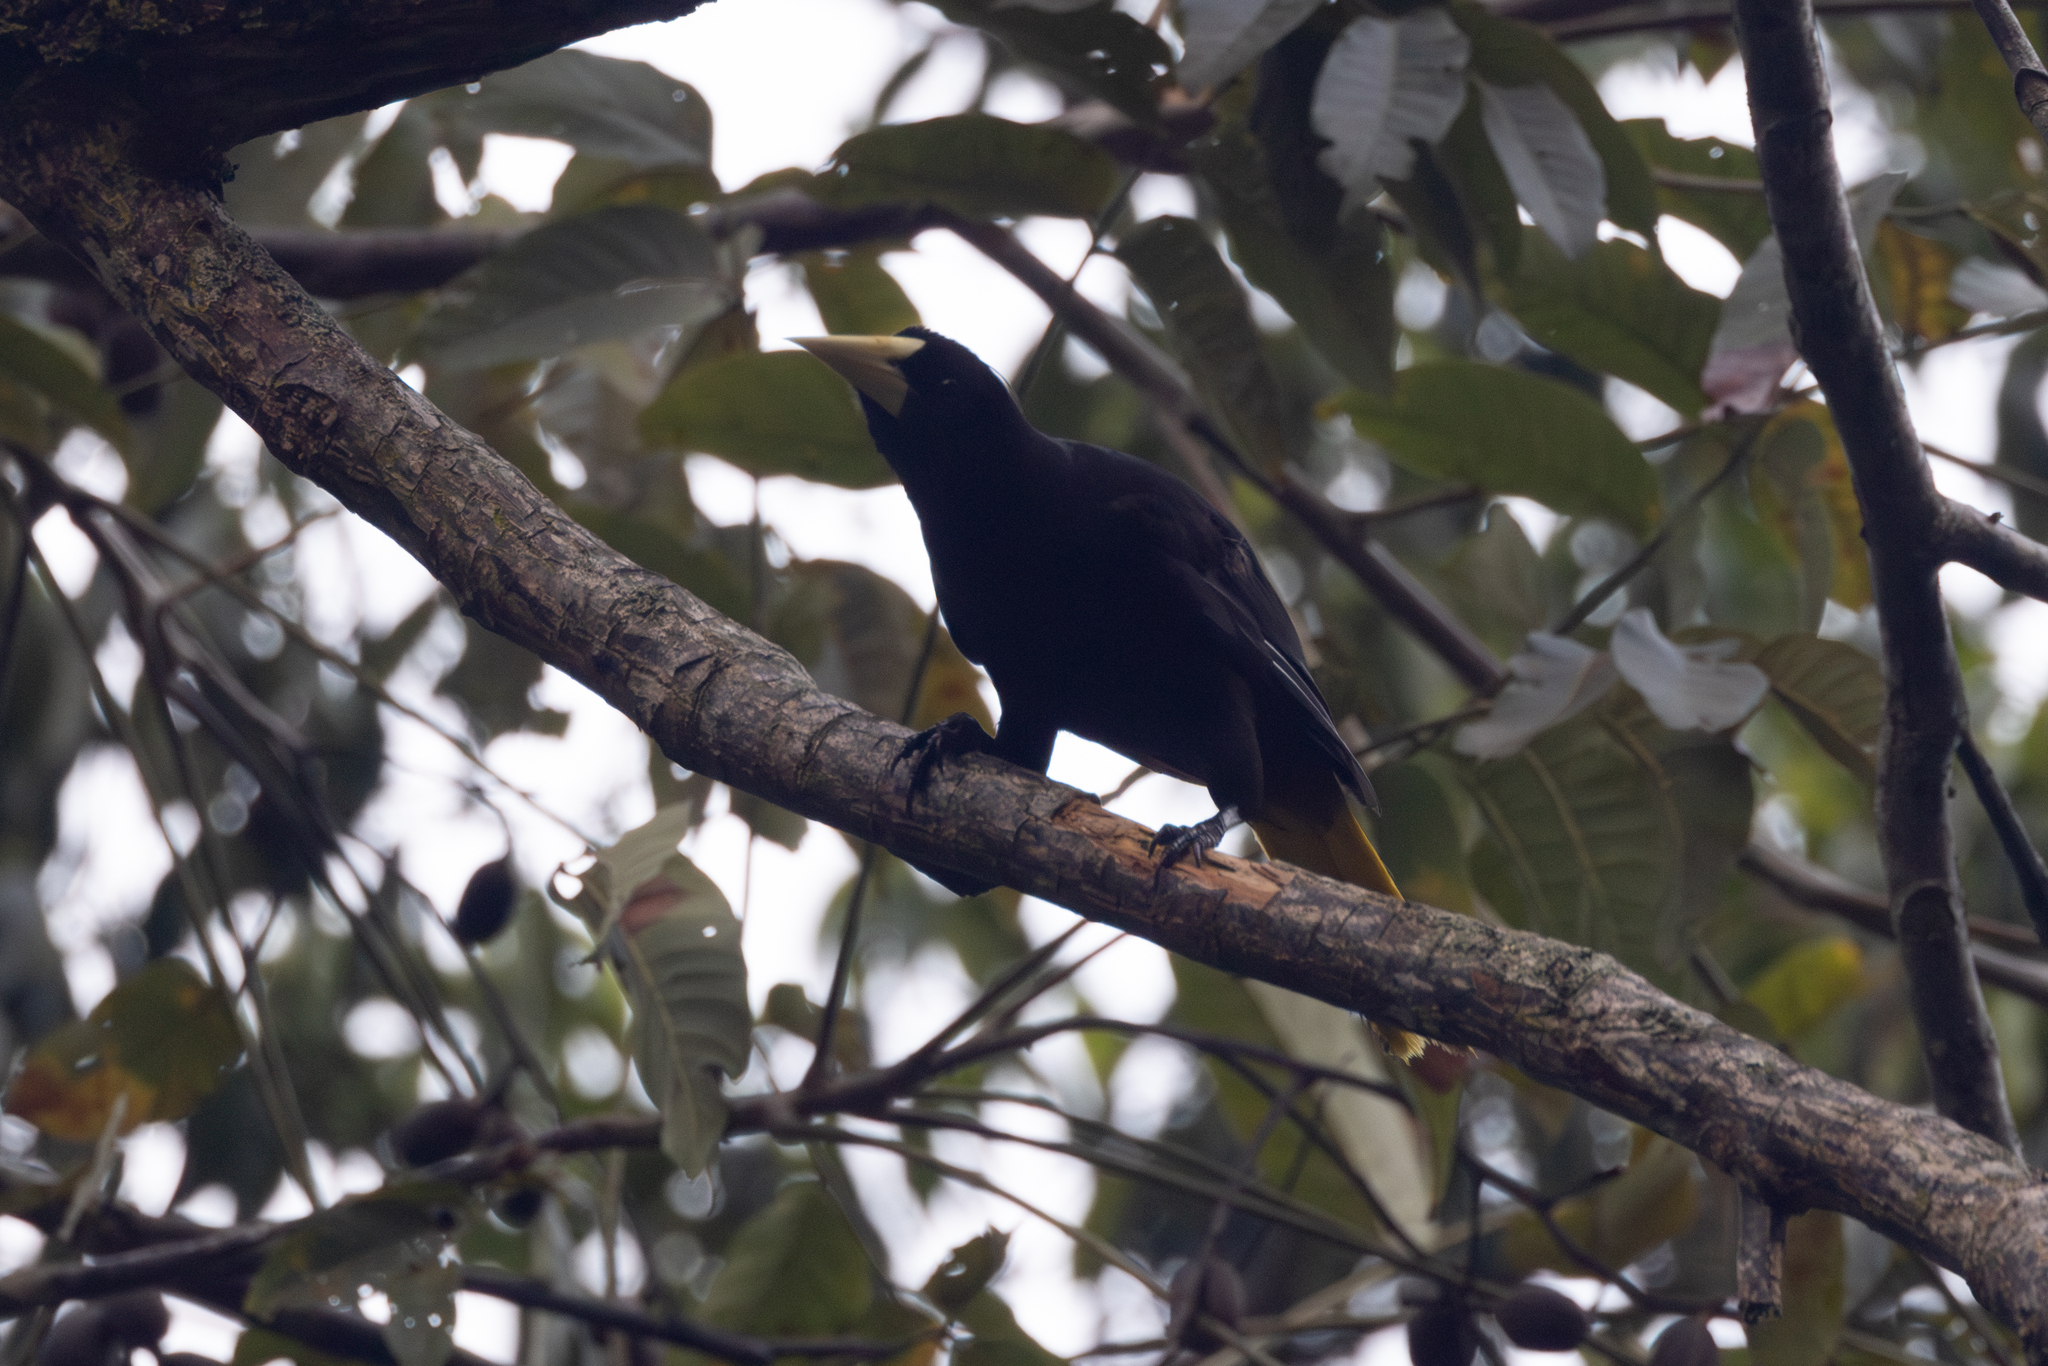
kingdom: Animalia
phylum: Chordata
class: Aves
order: Passeriformes
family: Icteridae
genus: Psarocolius
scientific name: Psarocolius decumanus
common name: Crested oropendola
